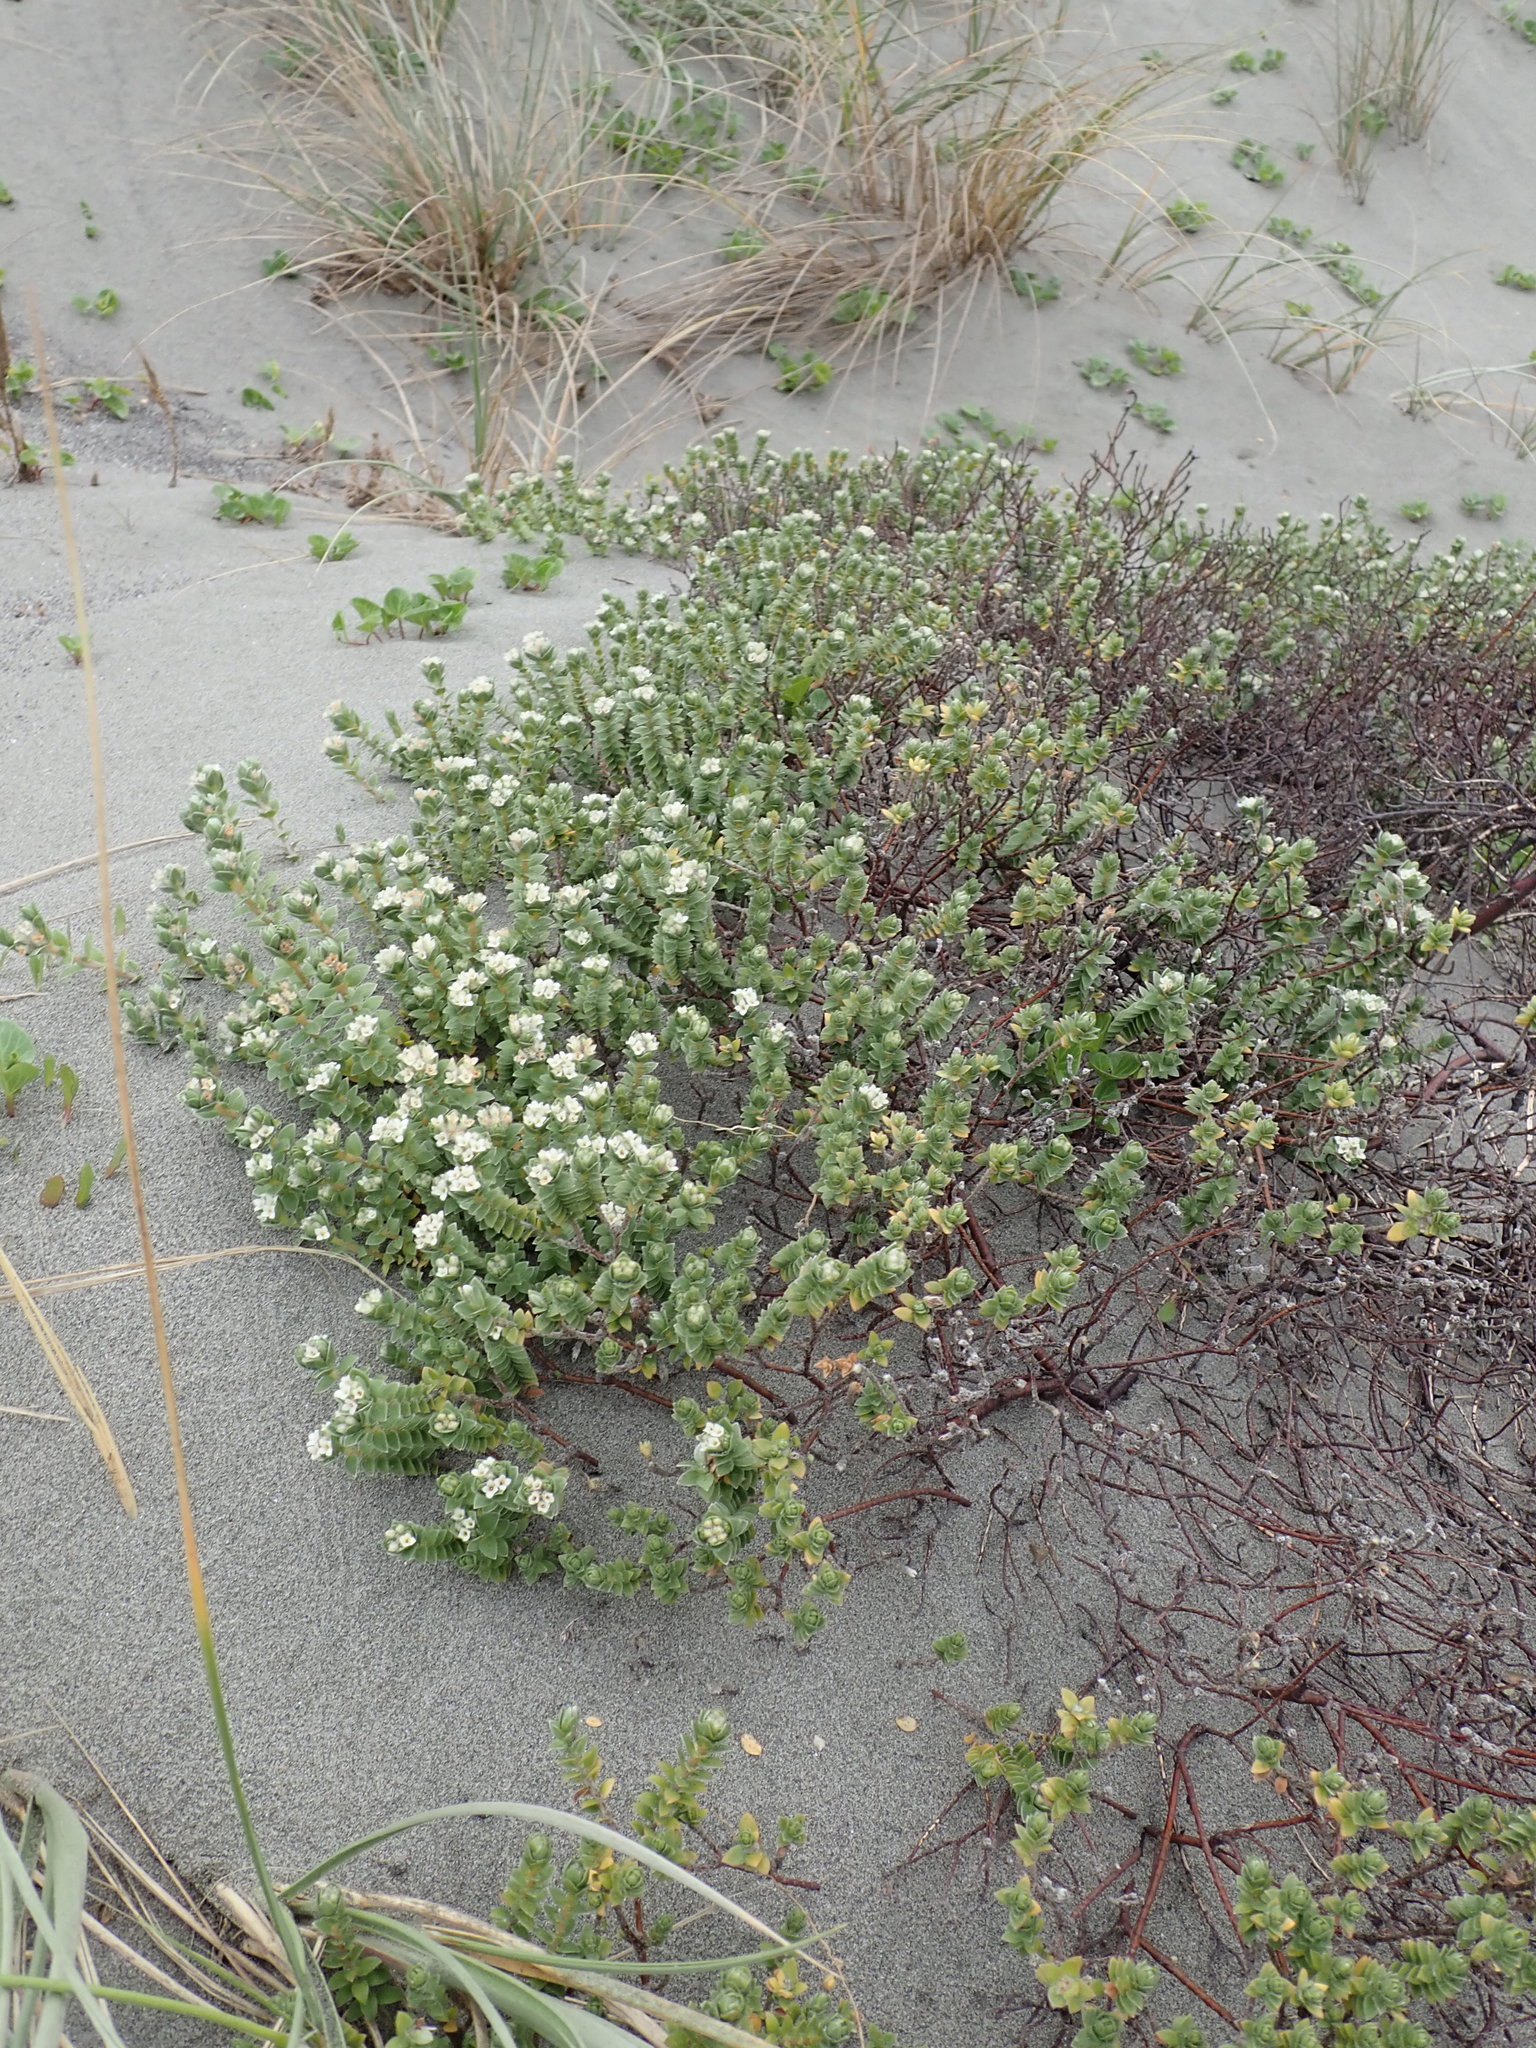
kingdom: Plantae
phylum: Tracheophyta
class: Magnoliopsida
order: Malvales
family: Thymelaeaceae
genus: Pimelea
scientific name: Pimelea villosa
